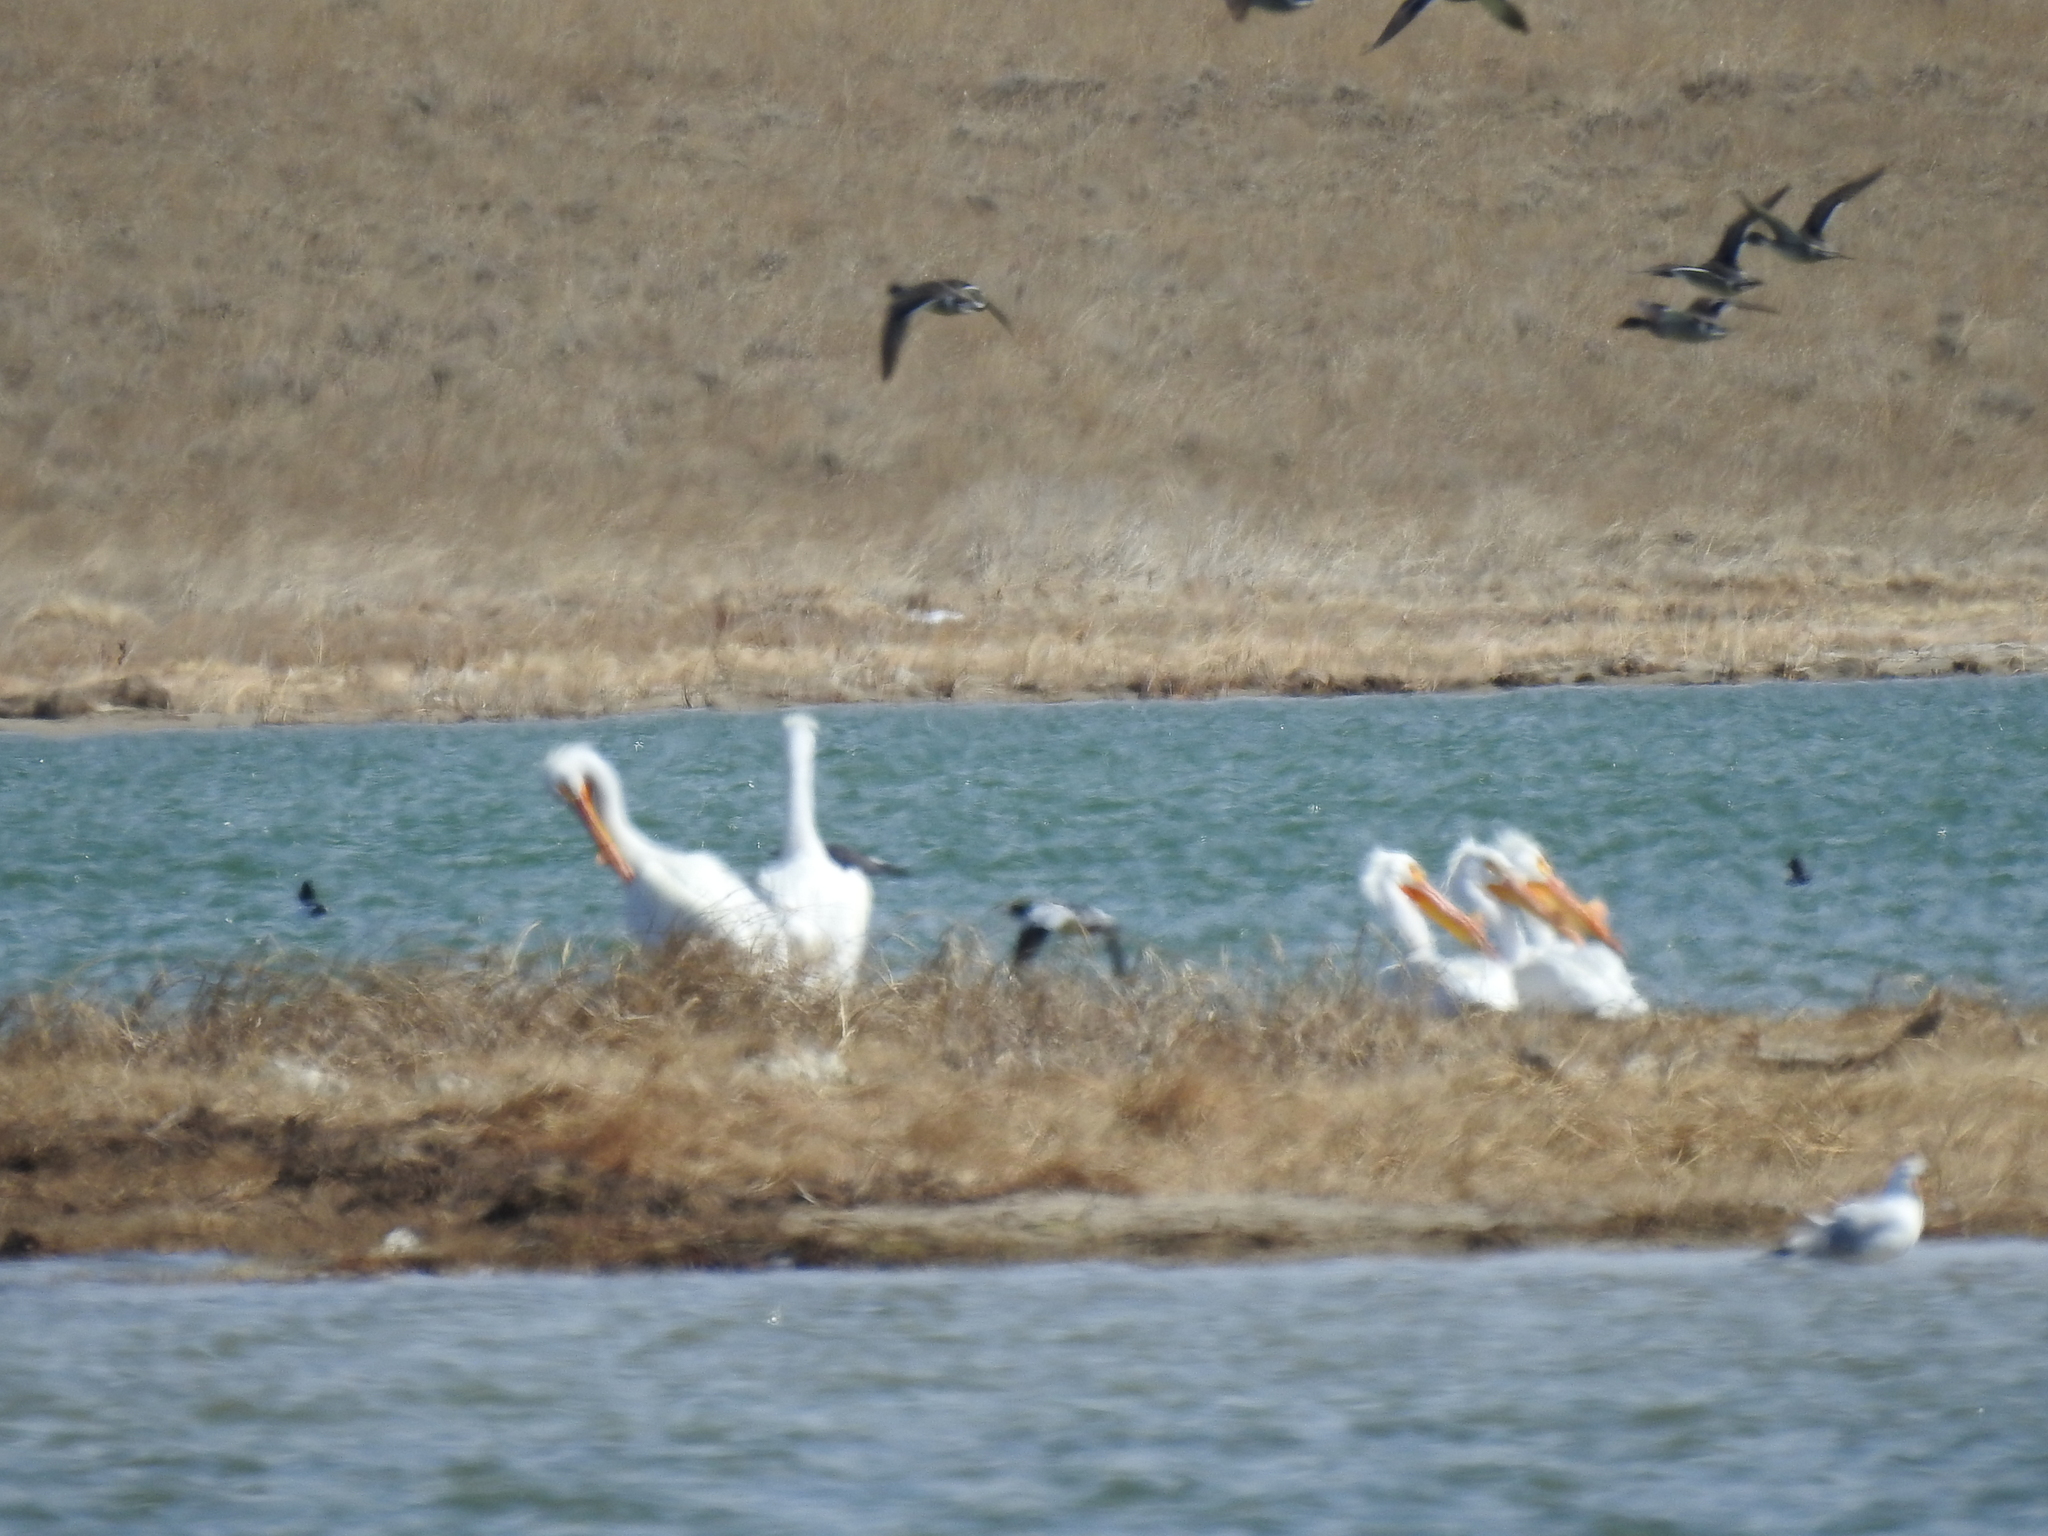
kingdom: Animalia
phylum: Chordata
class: Aves
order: Pelecaniformes
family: Pelecanidae
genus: Pelecanus
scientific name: Pelecanus erythrorhynchos
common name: American white pelican
